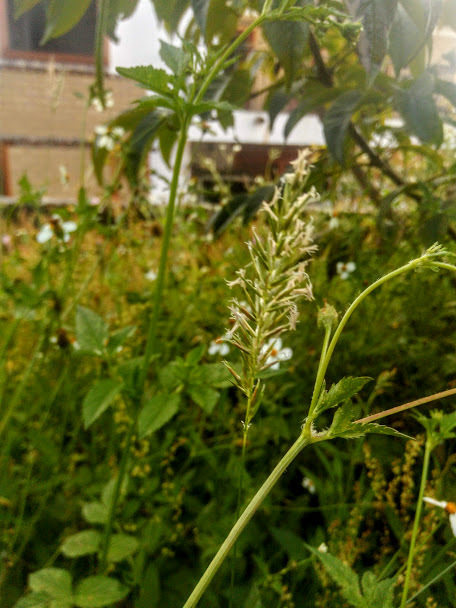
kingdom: Plantae
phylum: Tracheophyta
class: Liliopsida
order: Poales
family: Poaceae
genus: Anthoxanthum
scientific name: Anthoxanthum odoratum
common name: Sweet vernalgrass
